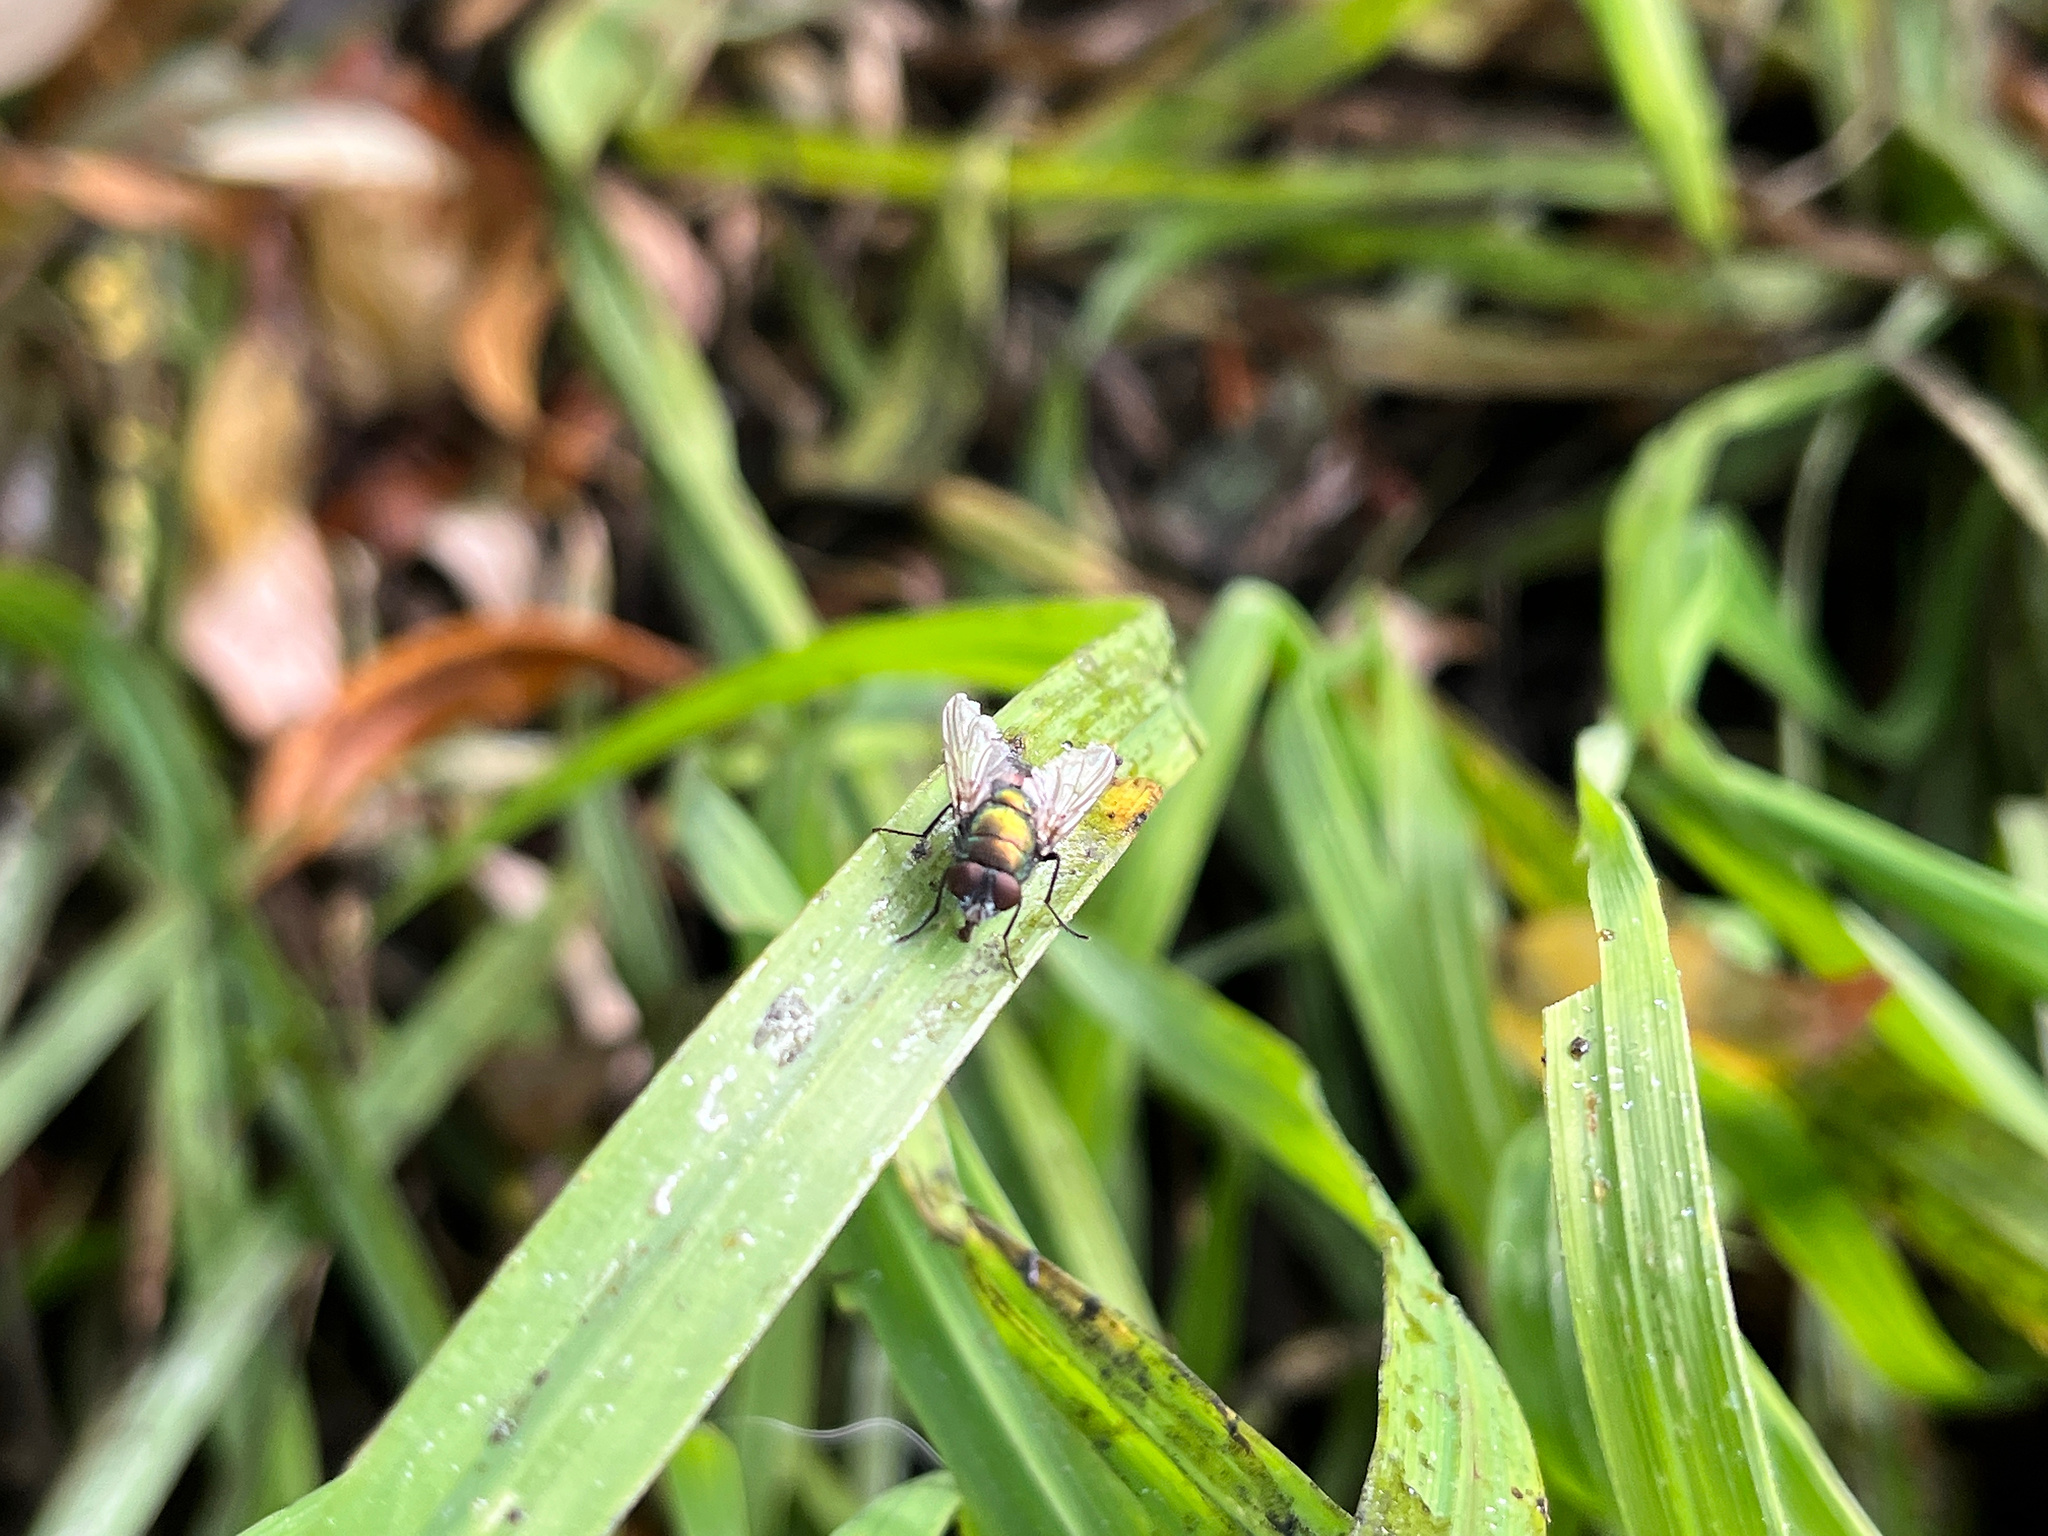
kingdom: Animalia
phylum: Arthropoda
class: Insecta
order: Diptera
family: Calliphoridae
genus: Lucilia
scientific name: Lucilia sericata
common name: Blow fly
